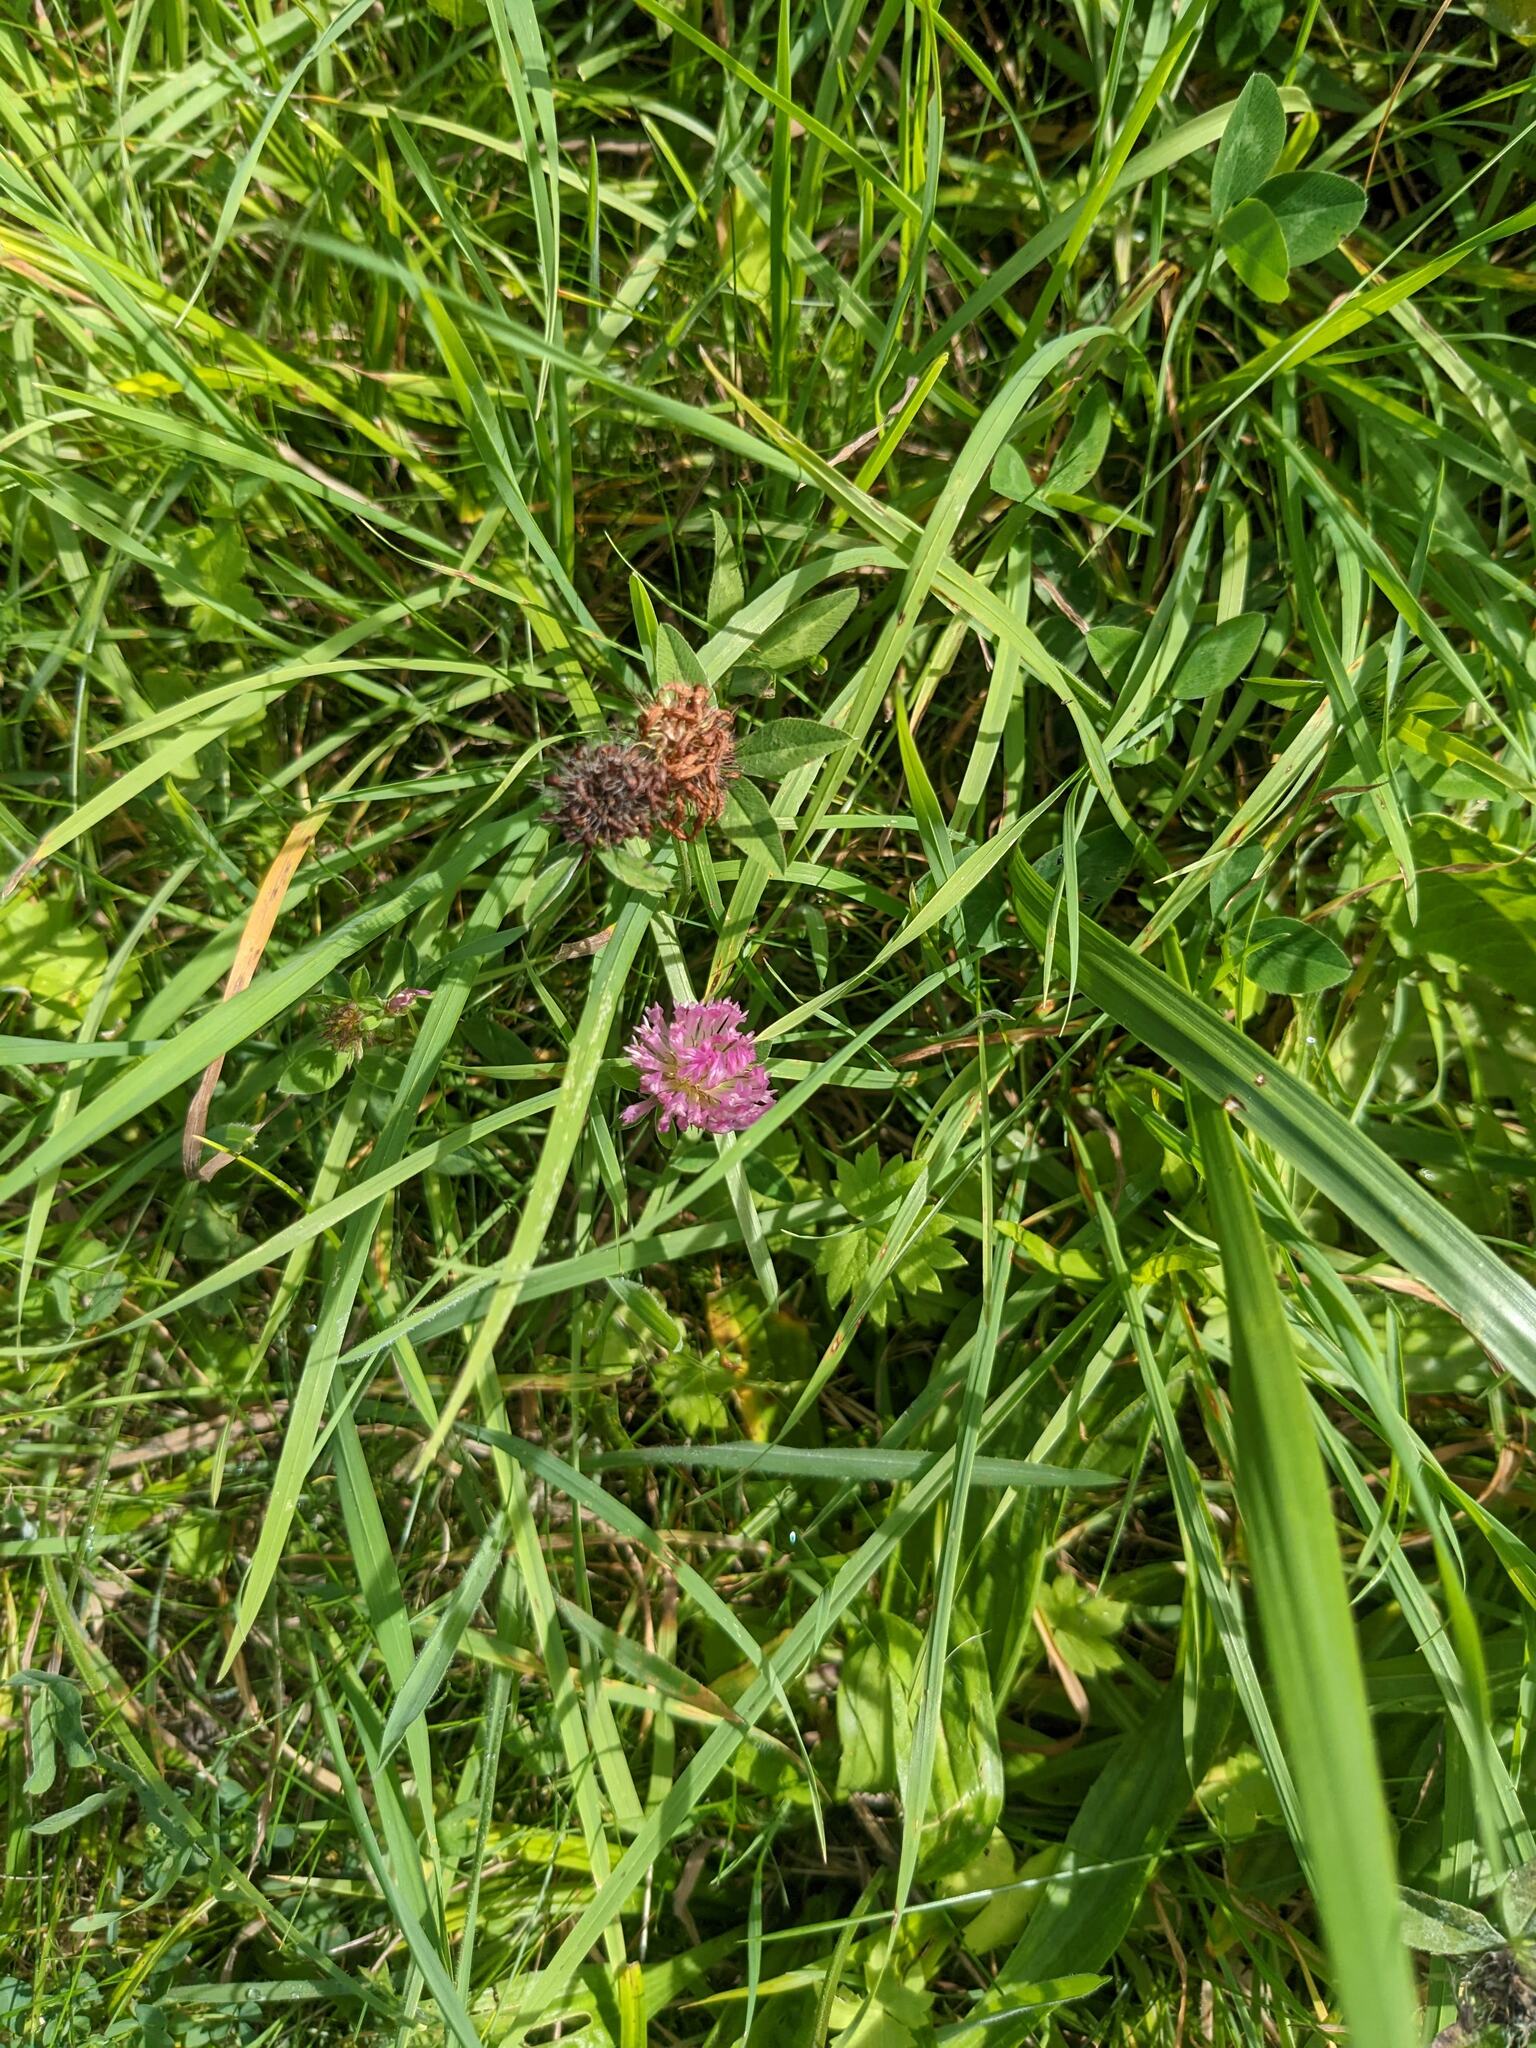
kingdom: Plantae
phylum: Tracheophyta
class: Magnoliopsida
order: Fabales
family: Fabaceae
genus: Trifolium
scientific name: Trifolium pratense
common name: Red clover
